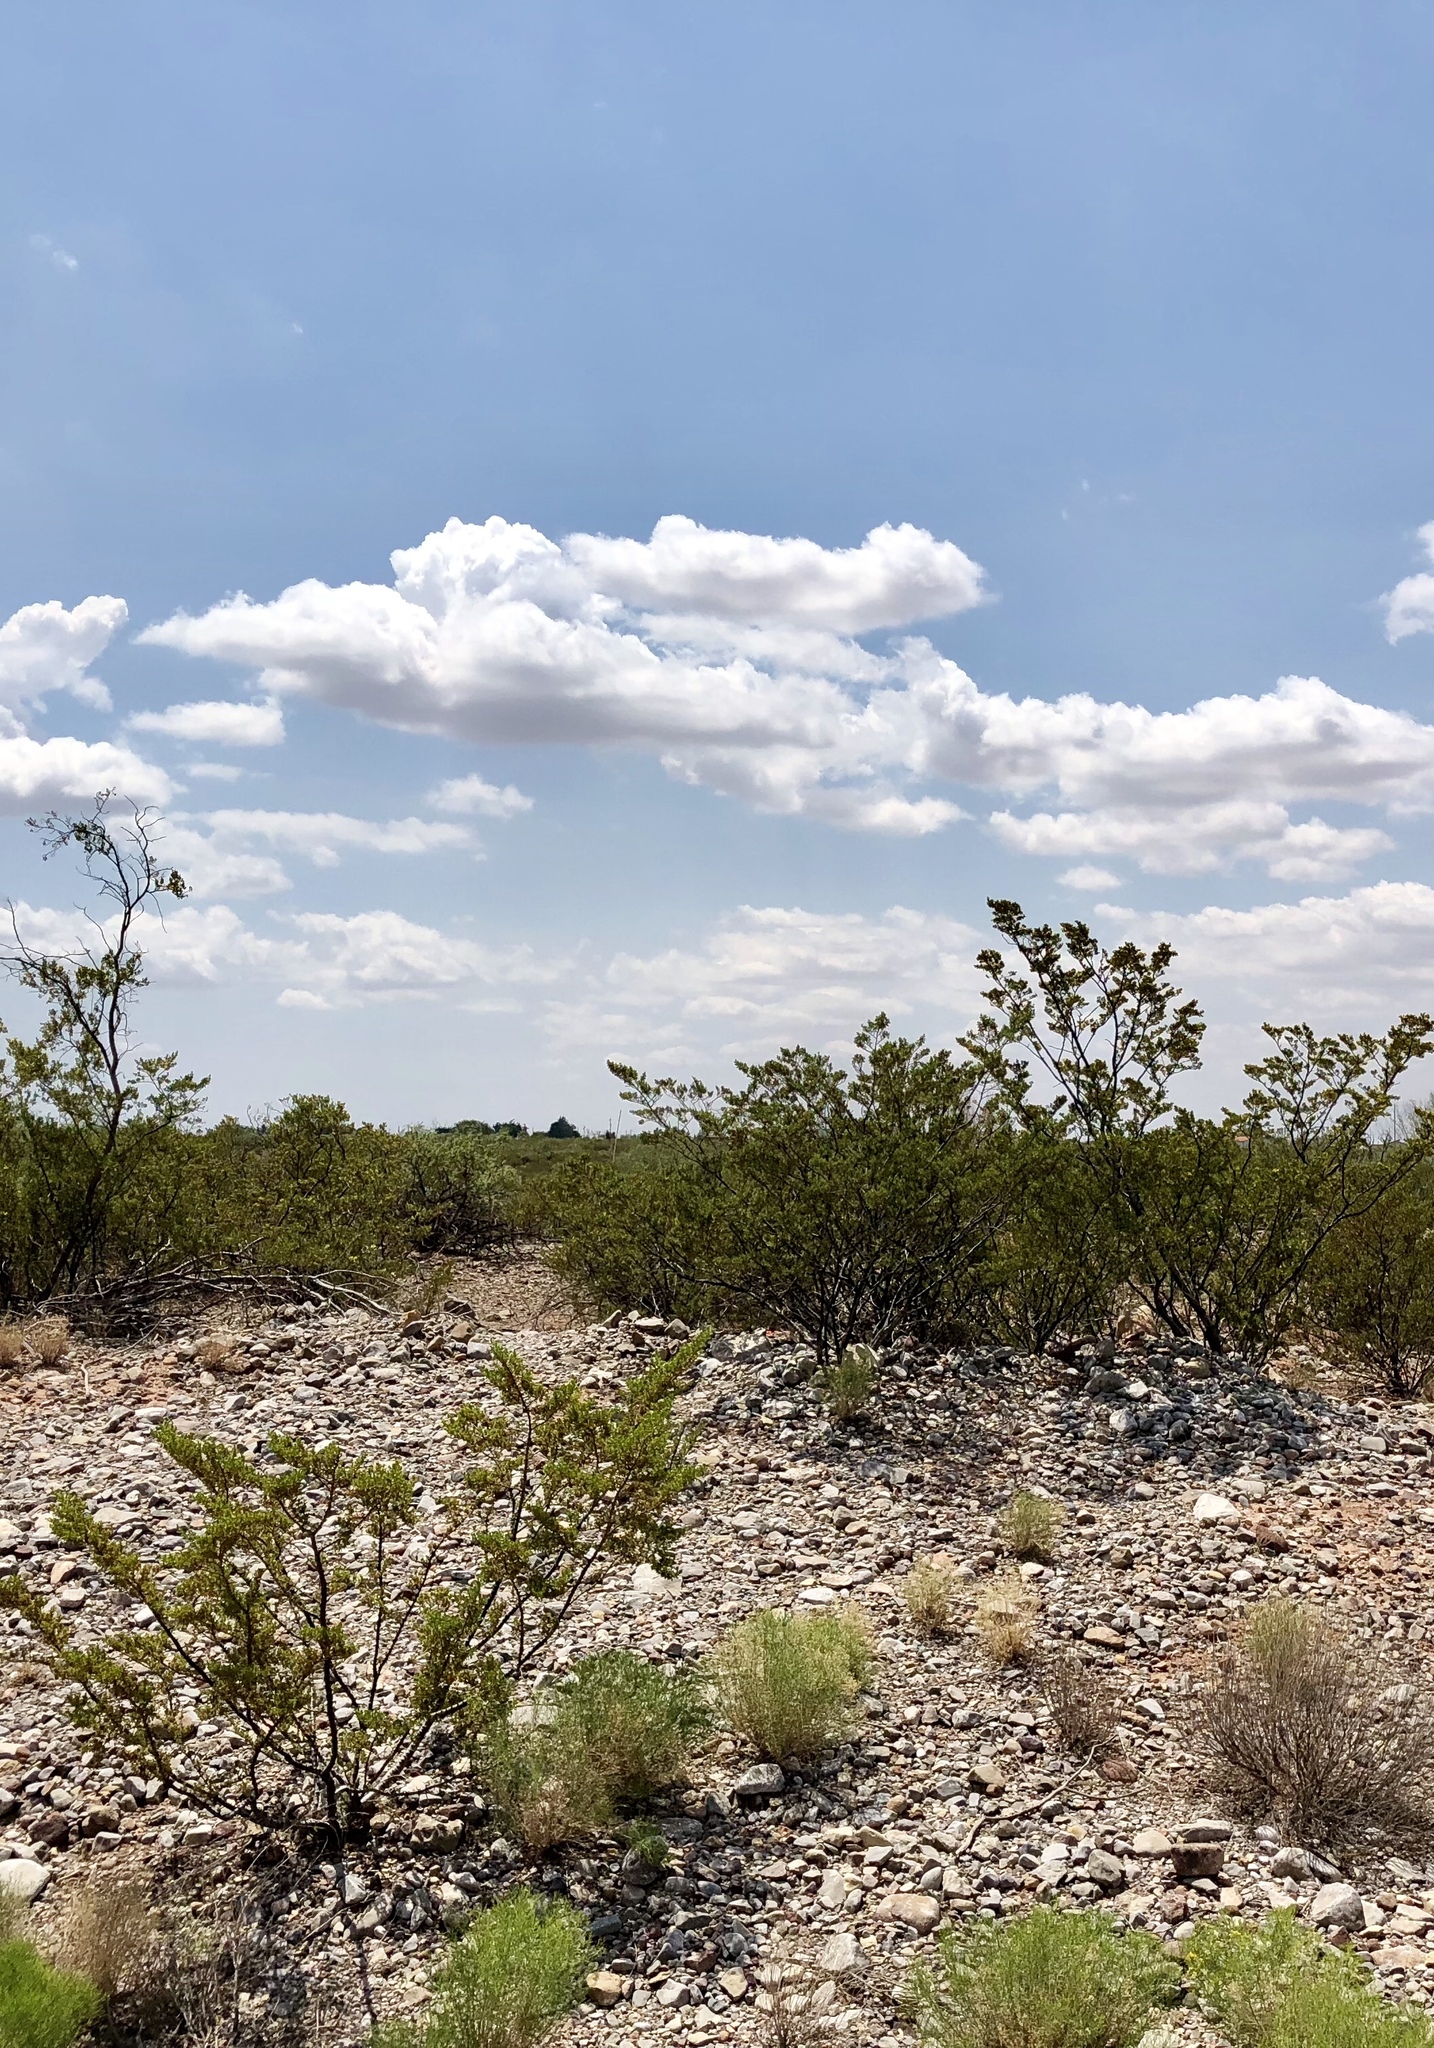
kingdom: Plantae
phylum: Tracheophyta
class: Magnoliopsida
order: Zygophyllales
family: Zygophyllaceae
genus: Larrea
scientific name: Larrea tridentata
